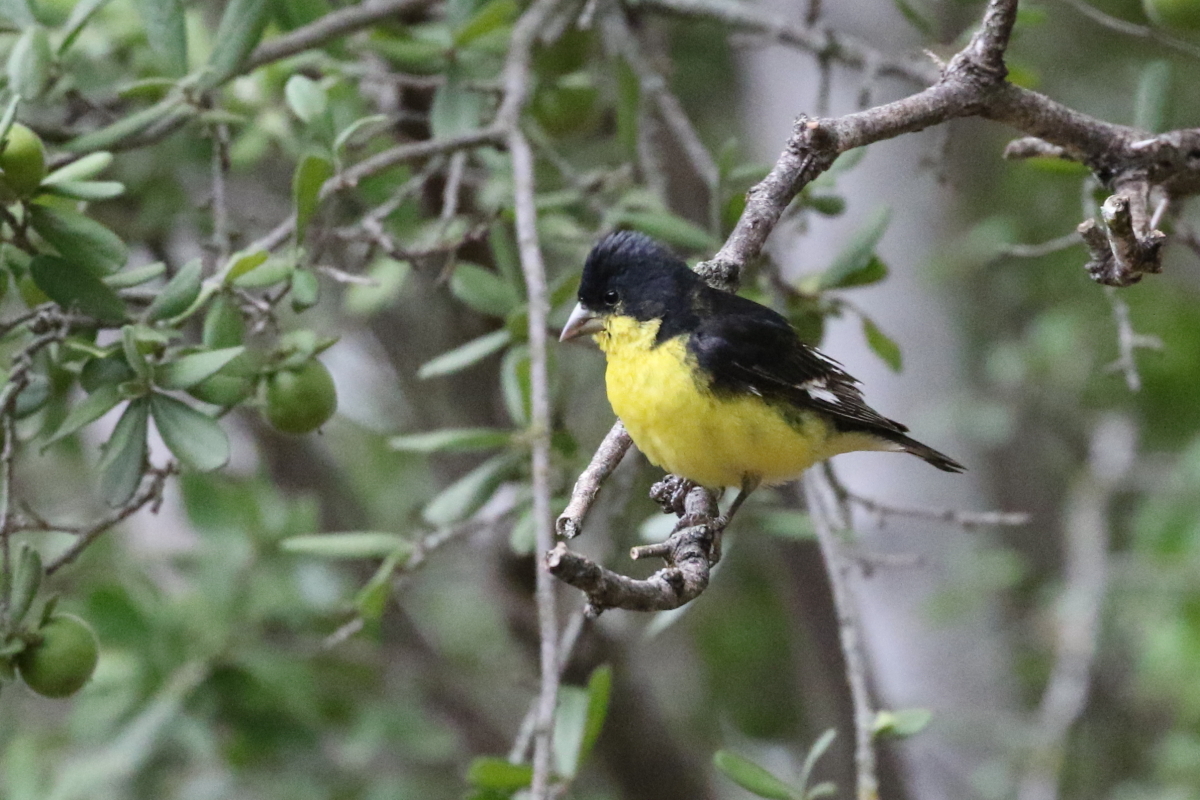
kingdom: Animalia
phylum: Chordata
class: Aves
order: Passeriformes
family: Fringillidae
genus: Spinus
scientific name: Spinus psaltria
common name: Lesser goldfinch
